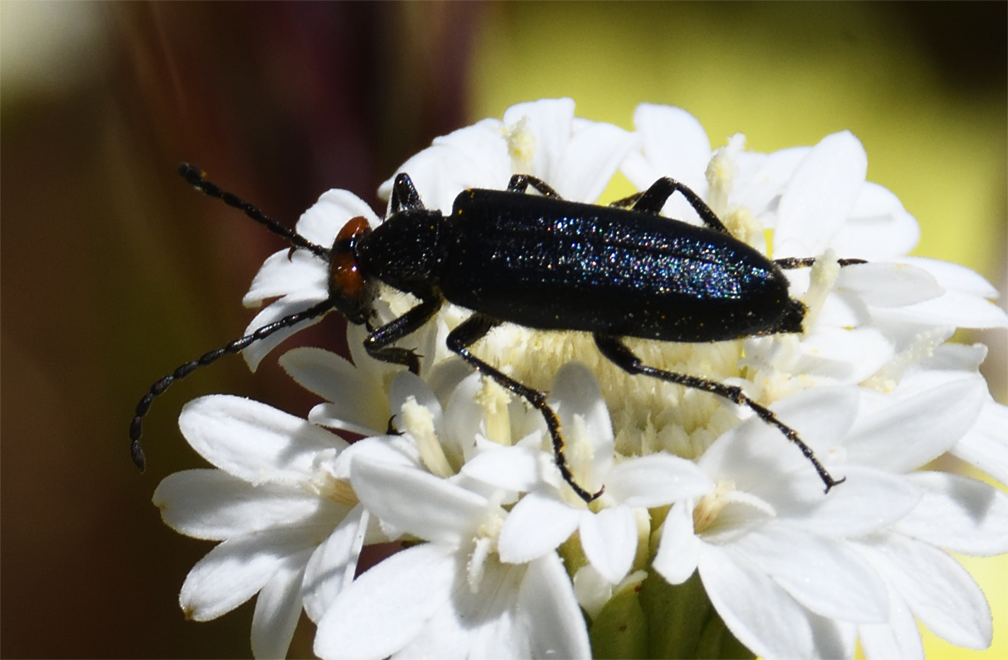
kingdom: Animalia
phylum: Arthropoda
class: Insecta
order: Coleoptera
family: Meloidae
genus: Lytta
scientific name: Lytta auriculata
